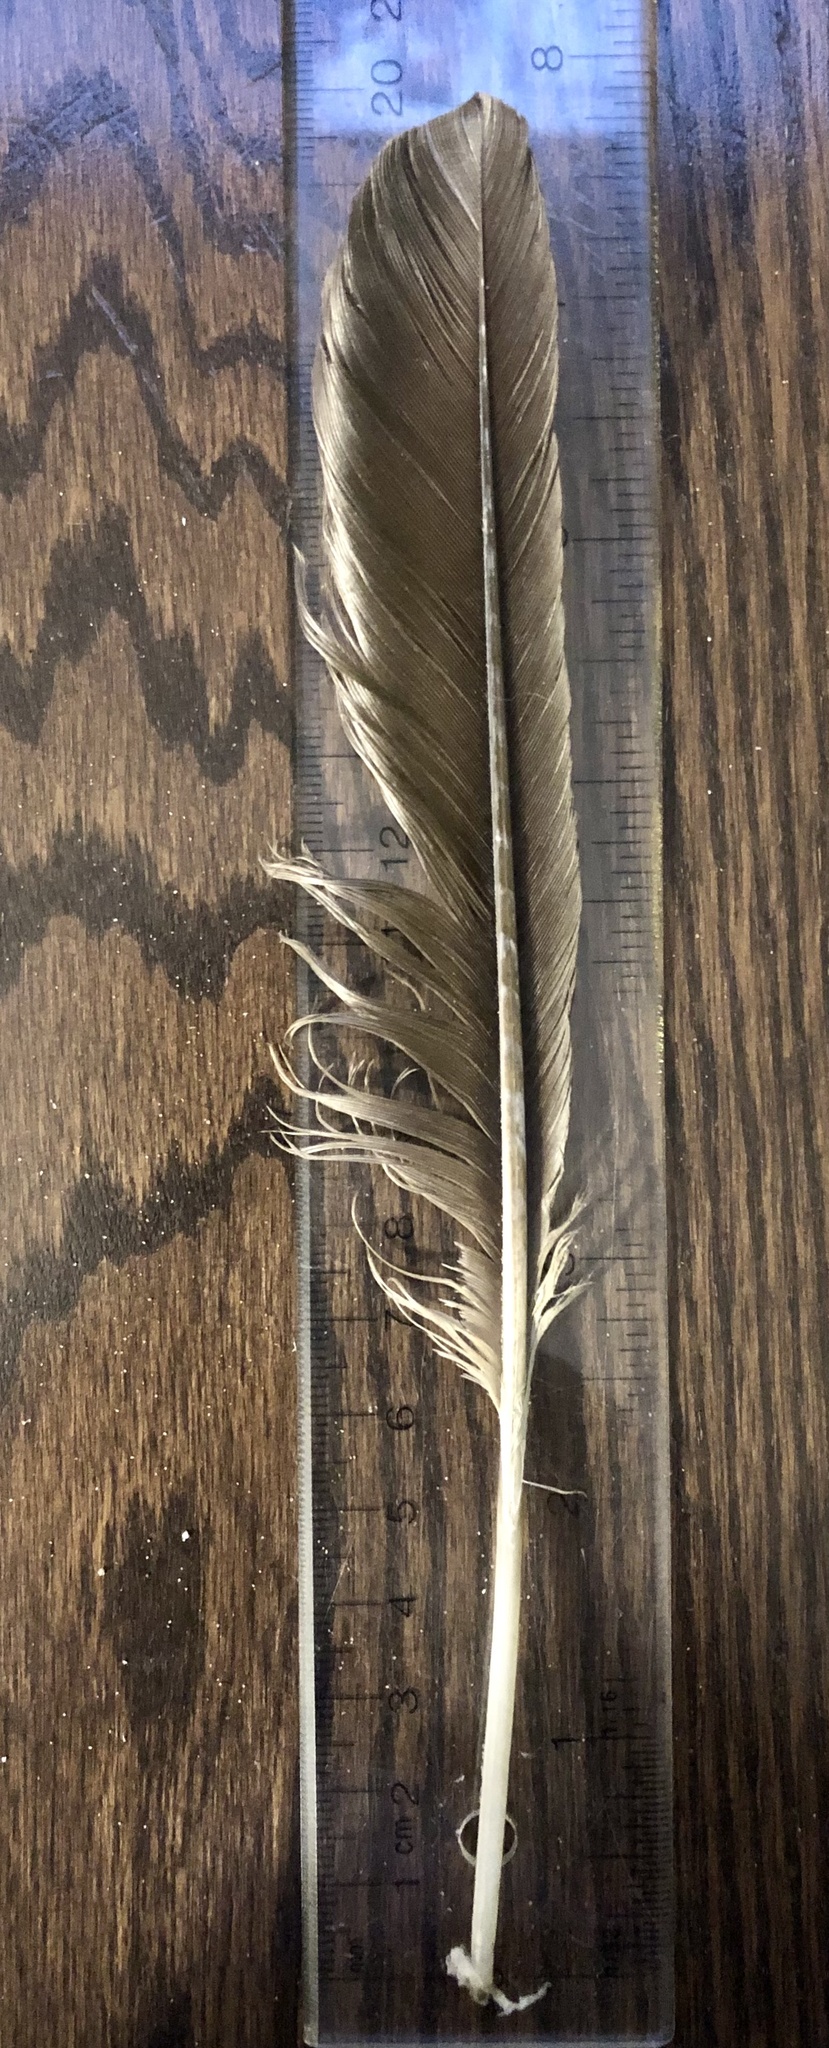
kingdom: Animalia
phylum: Chordata
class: Aves
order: Suliformes
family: Phalacrocoracidae
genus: Phalacrocorax
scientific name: Phalacrocorax auritus
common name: Double-crested cormorant
